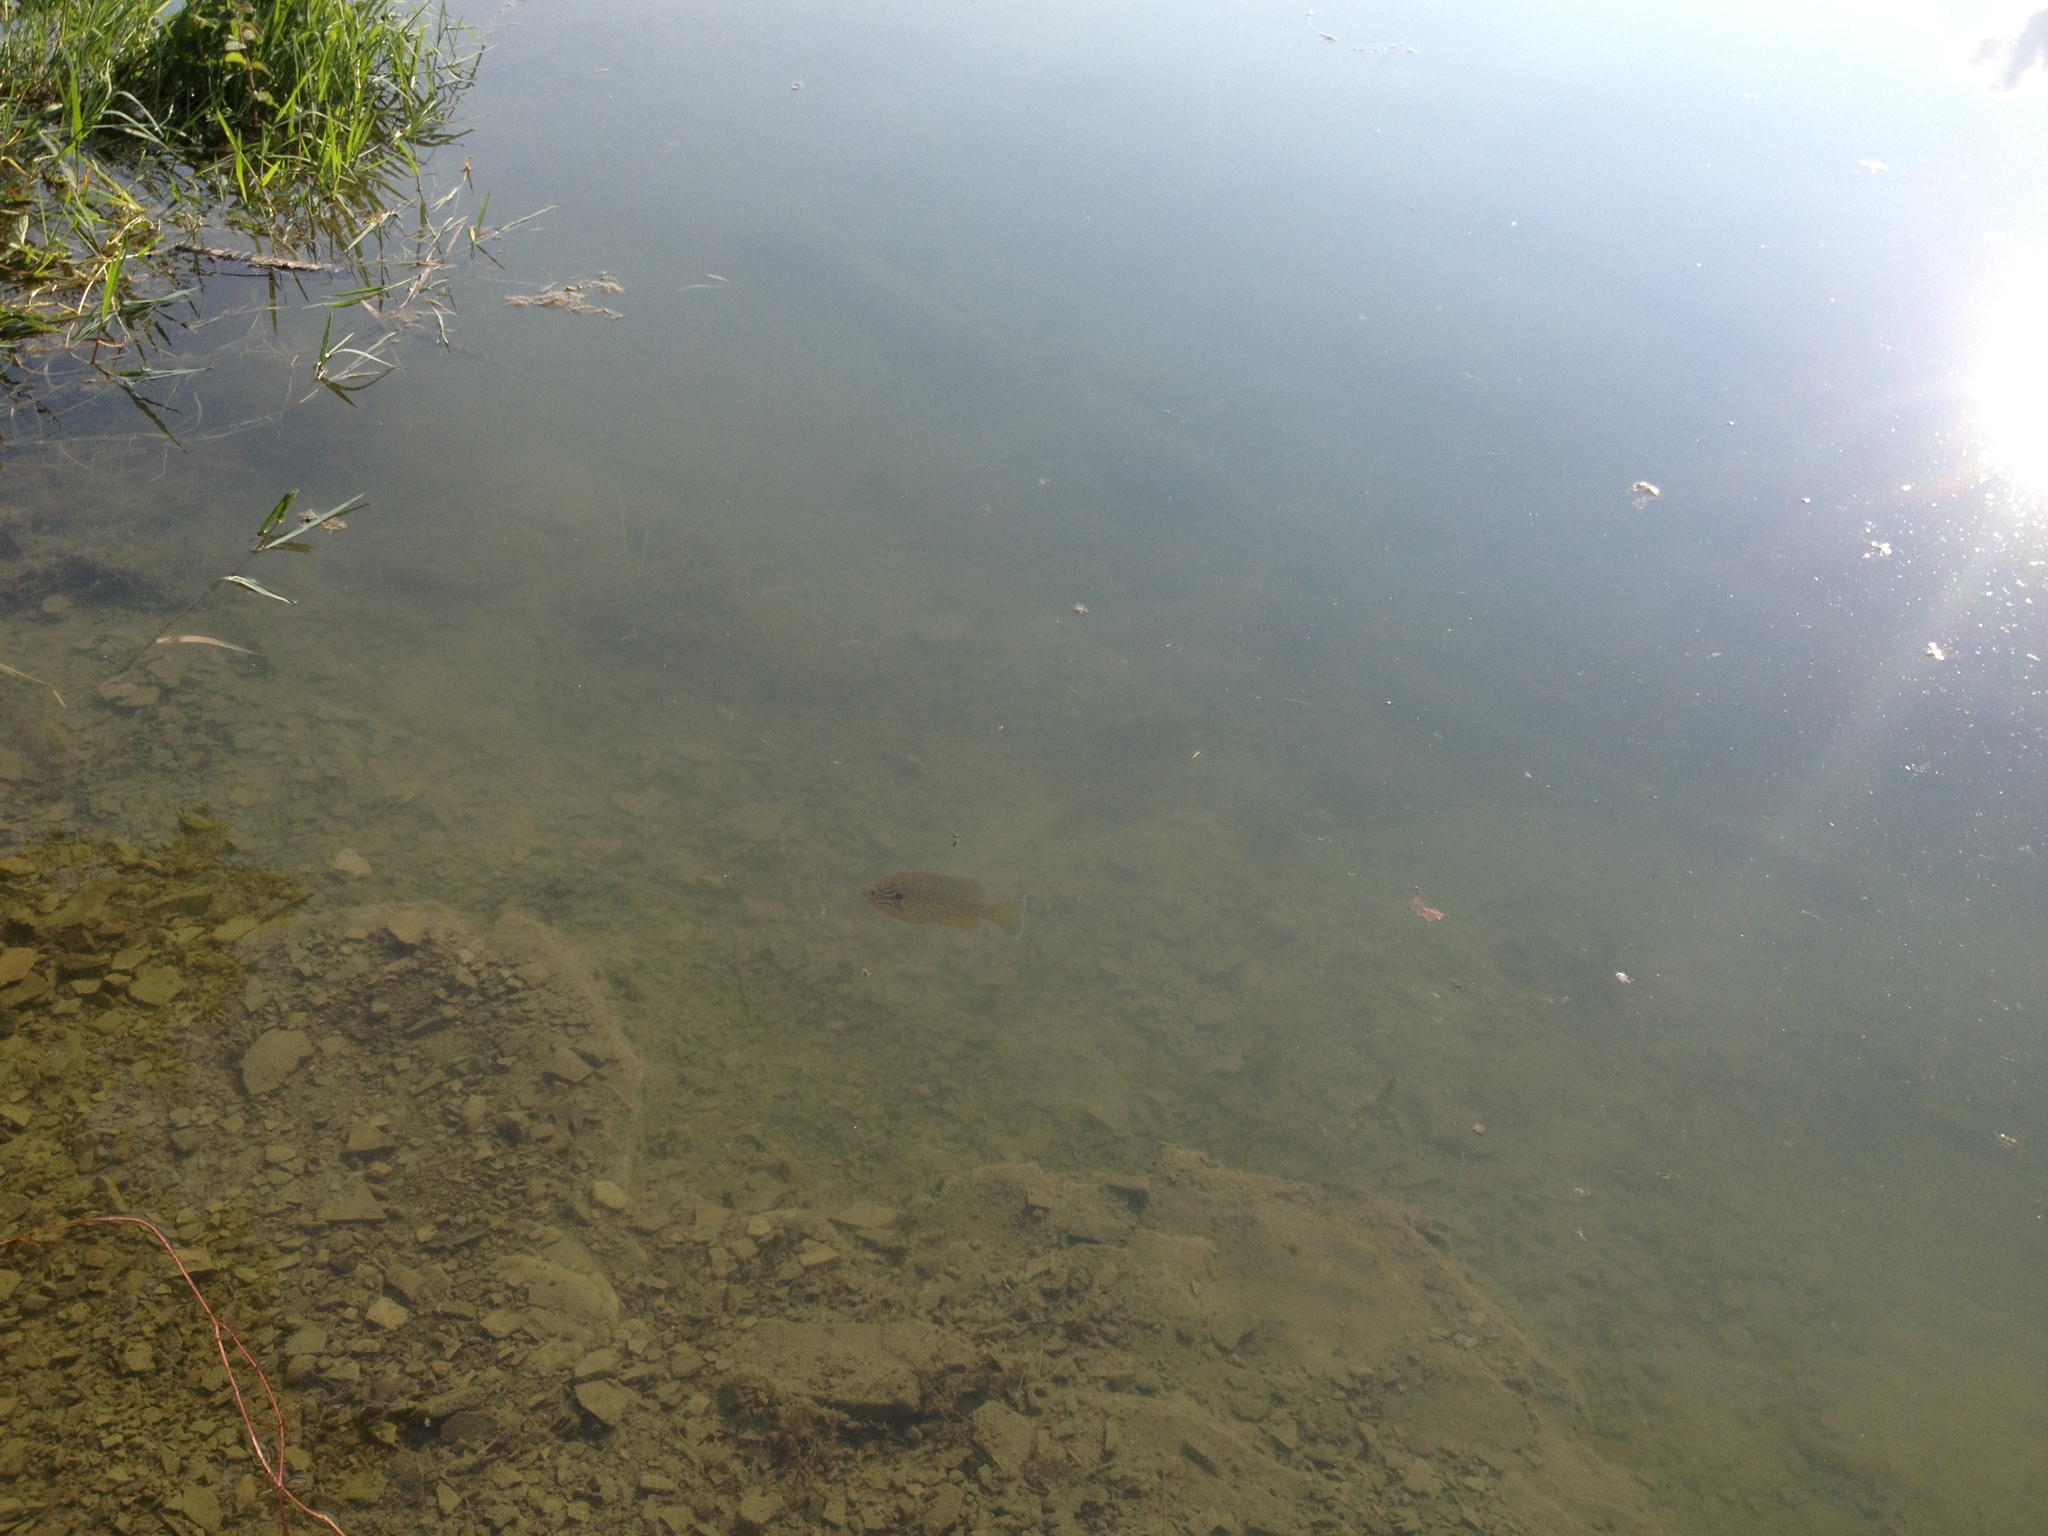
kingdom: Animalia
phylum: Chordata
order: Perciformes
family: Centrarchidae
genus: Lepomis
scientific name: Lepomis gibbosus
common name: Pumpkinseed
